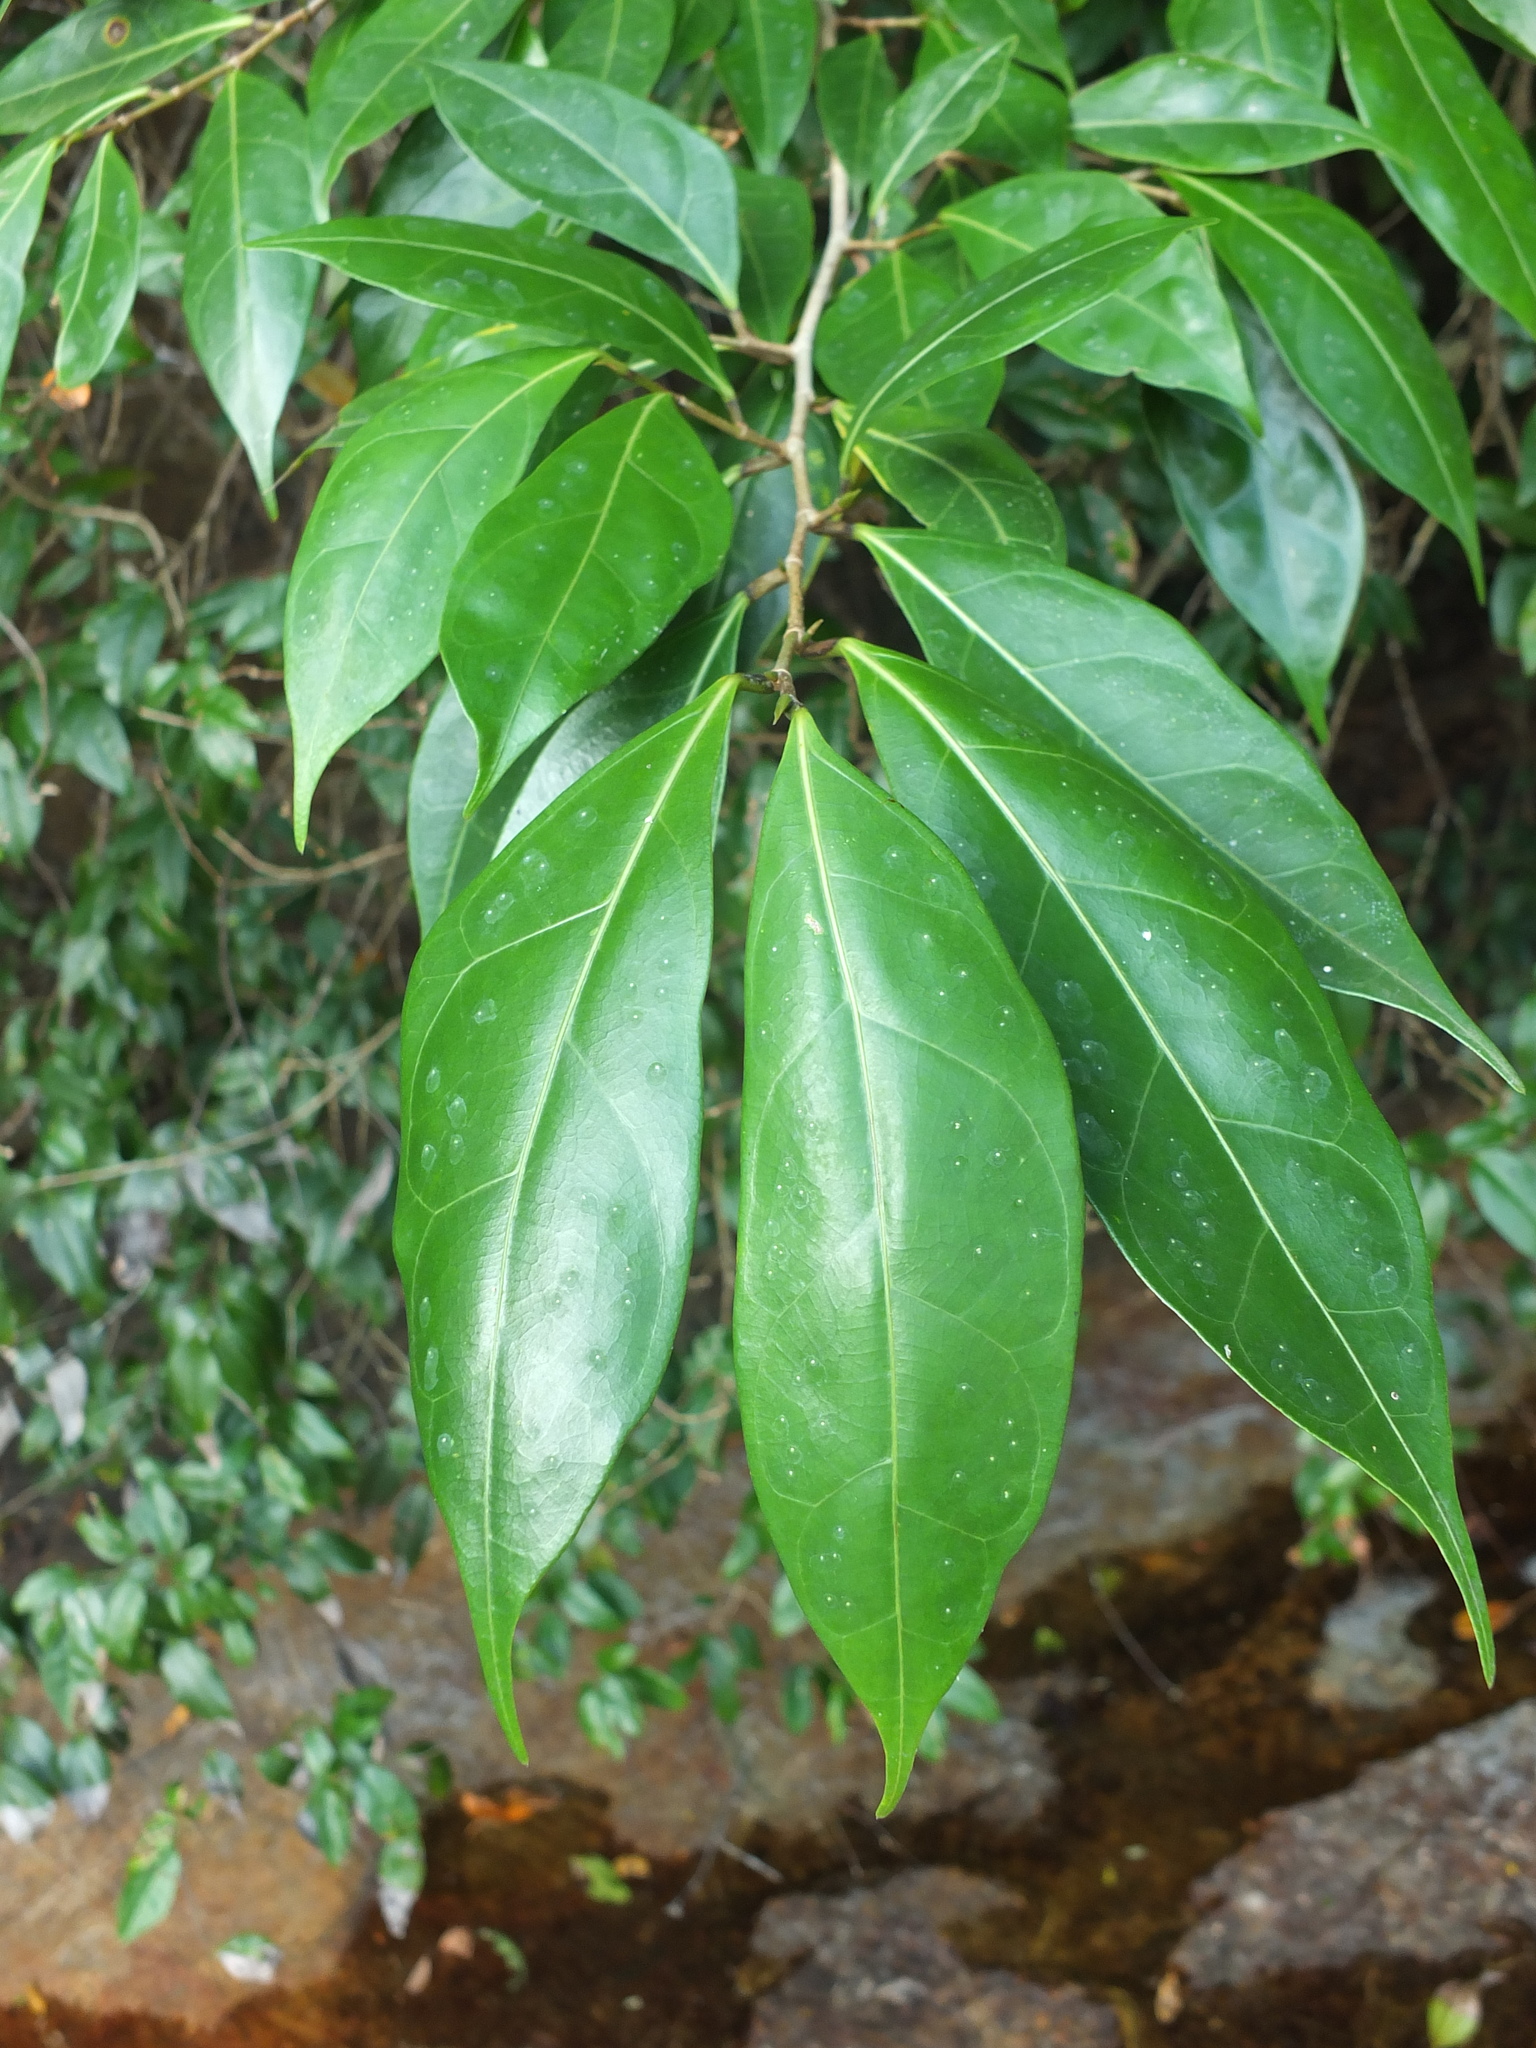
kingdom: Plantae
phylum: Tracheophyta
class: Magnoliopsida
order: Rosales
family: Moraceae
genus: Ficus
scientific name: Ficus tinctoria
